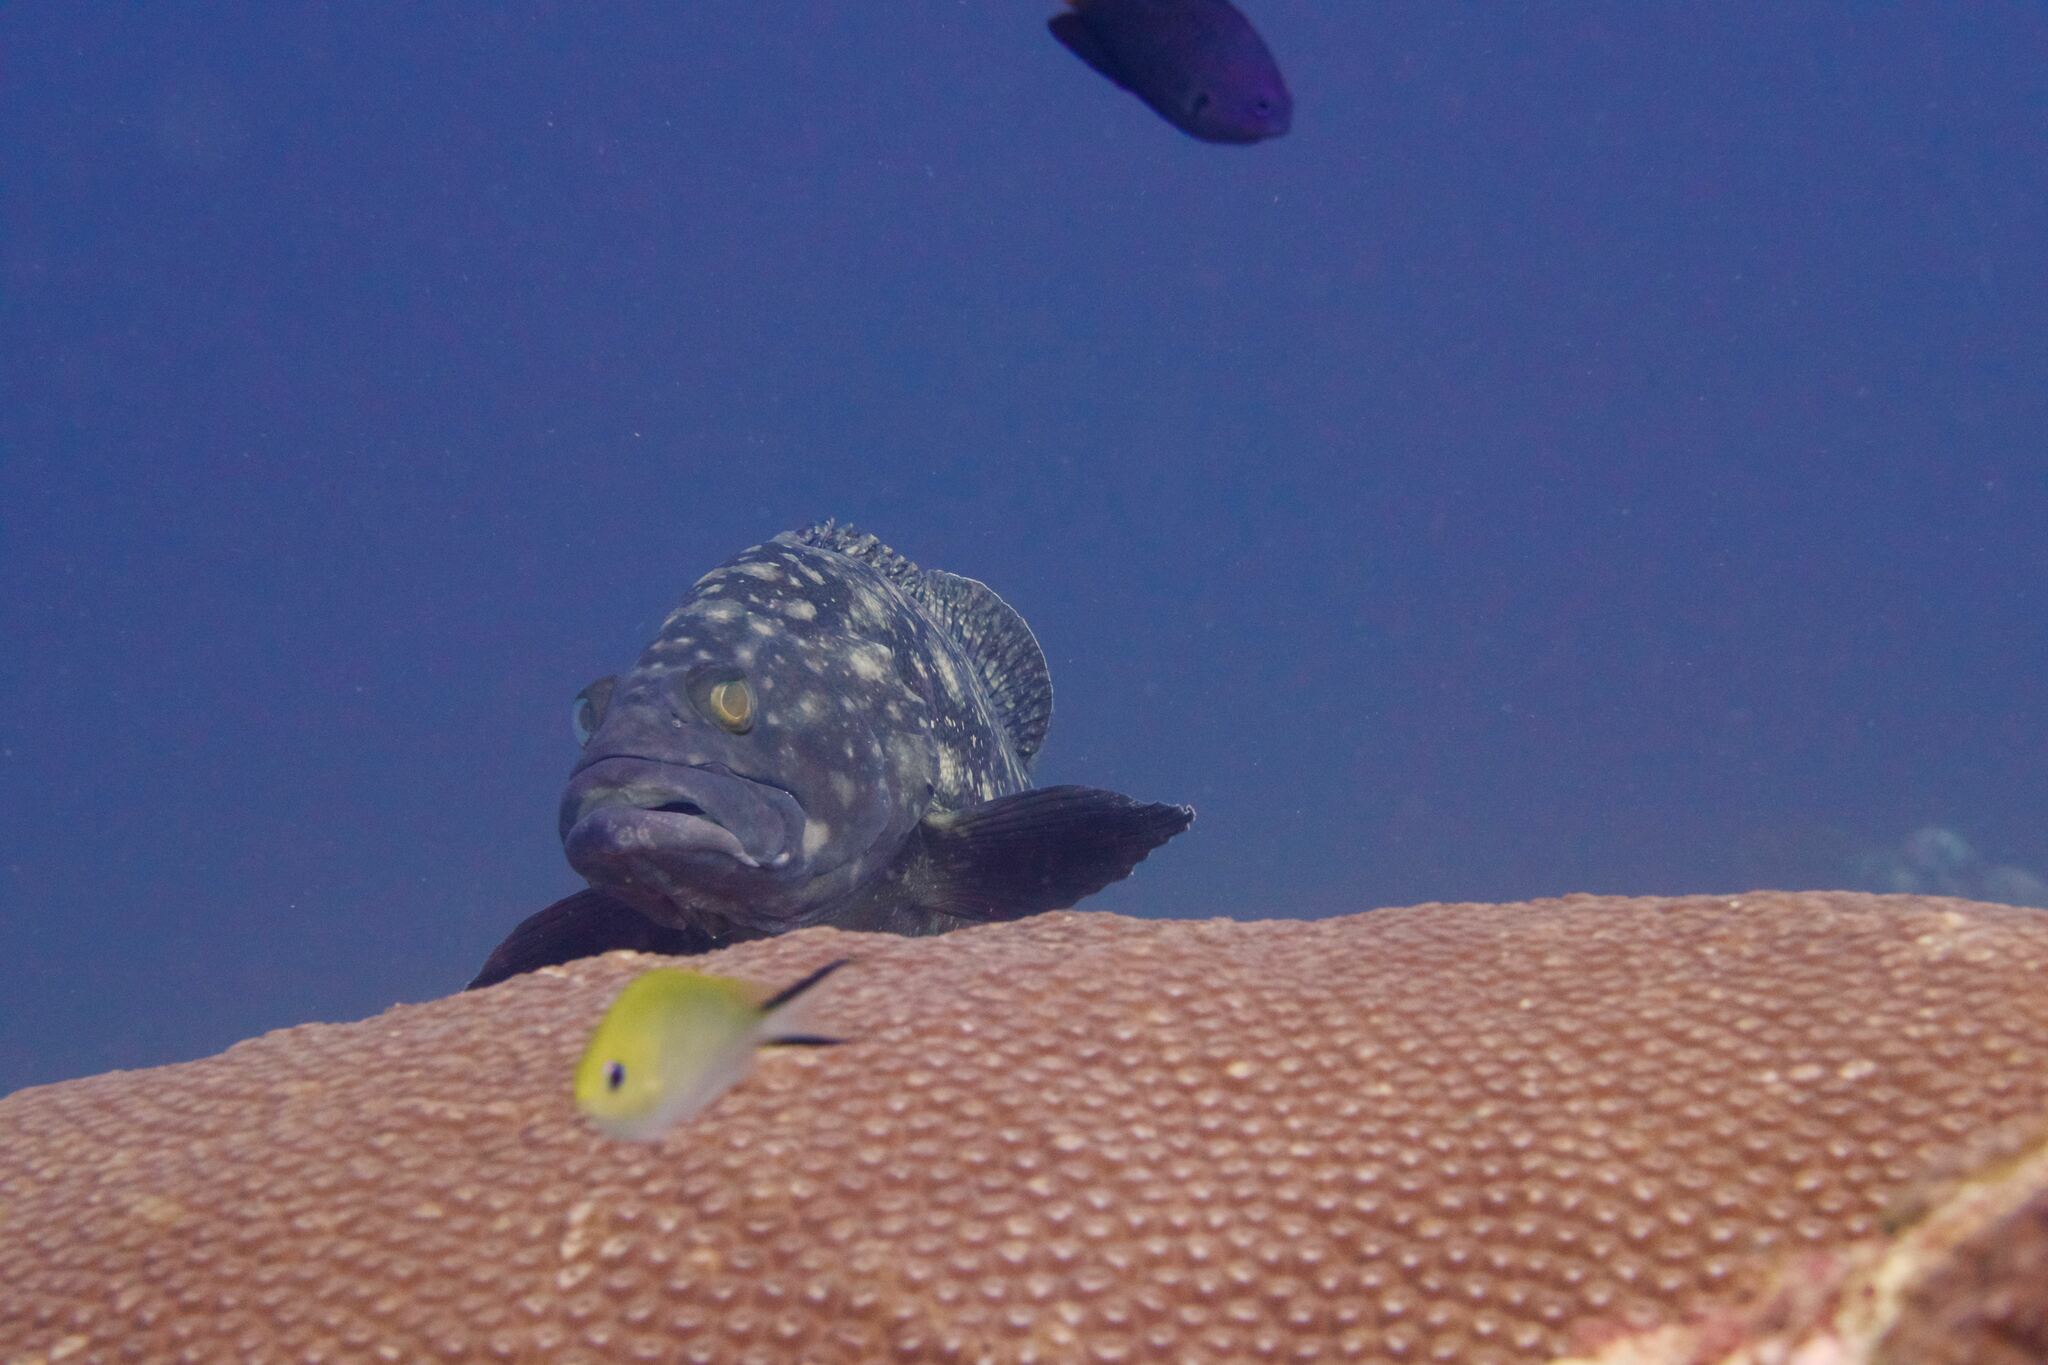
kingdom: Animalia
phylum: Chordata
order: Perciformes
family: Serranidae
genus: Epinephelus
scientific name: Epinephelus coeruleopunctatus
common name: Whitespotted grouper
